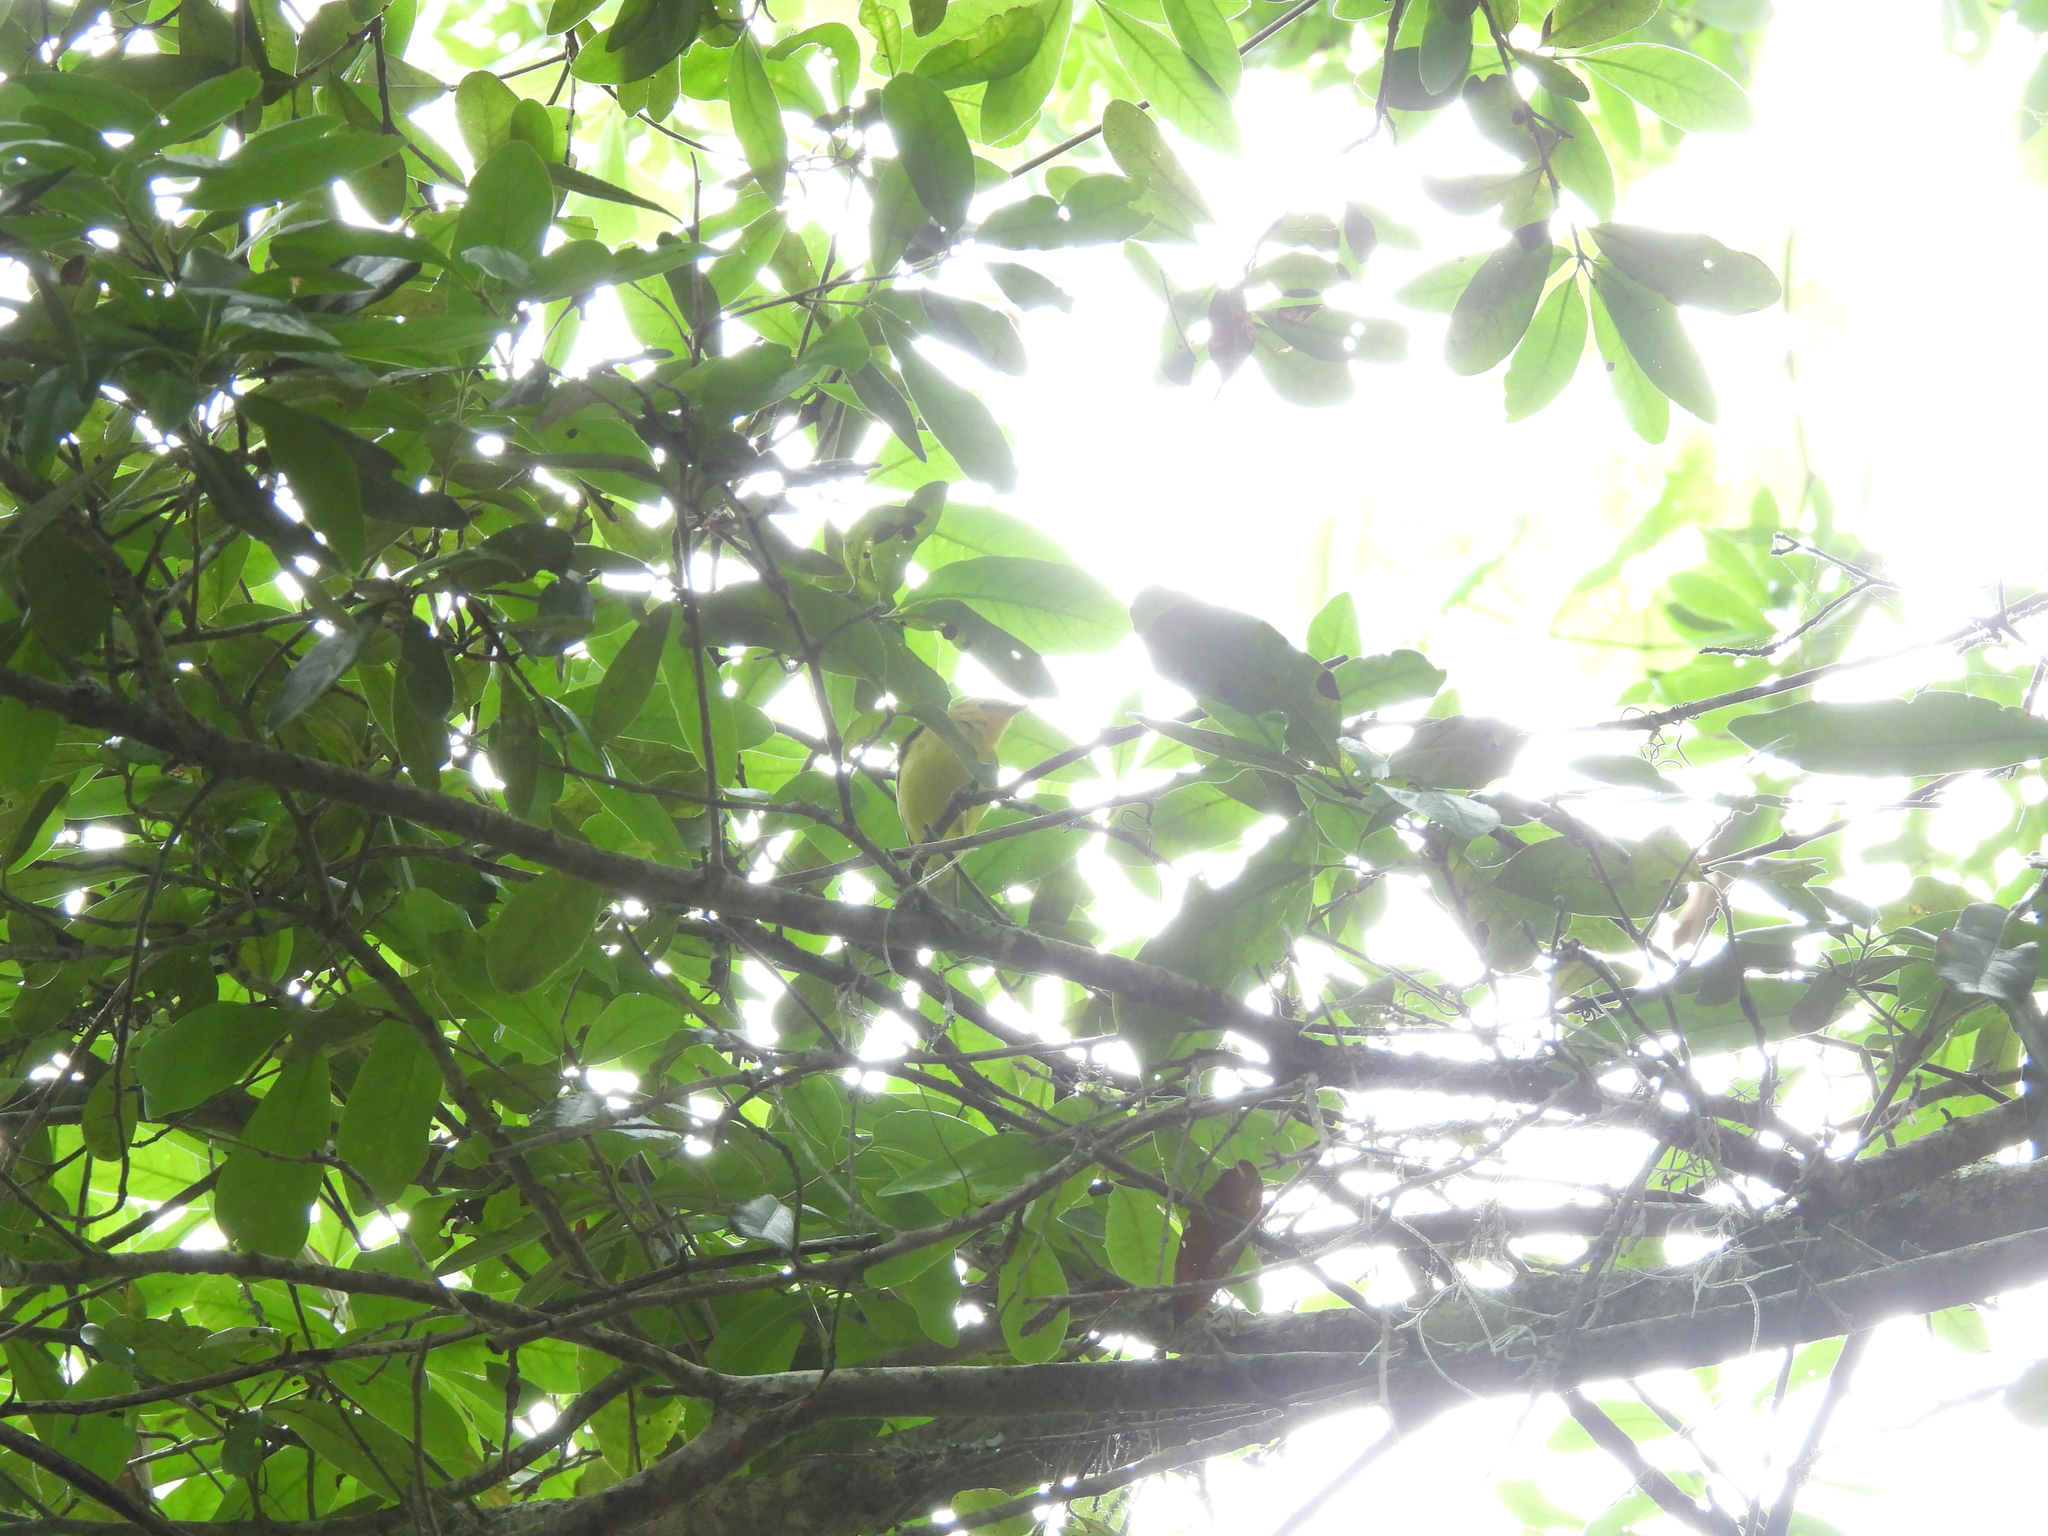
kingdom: Animalia
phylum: Chordata
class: Aves
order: Passeriformes
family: Parulidae
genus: Setophaga
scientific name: Setophaga citrina
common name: Hooded warbler
